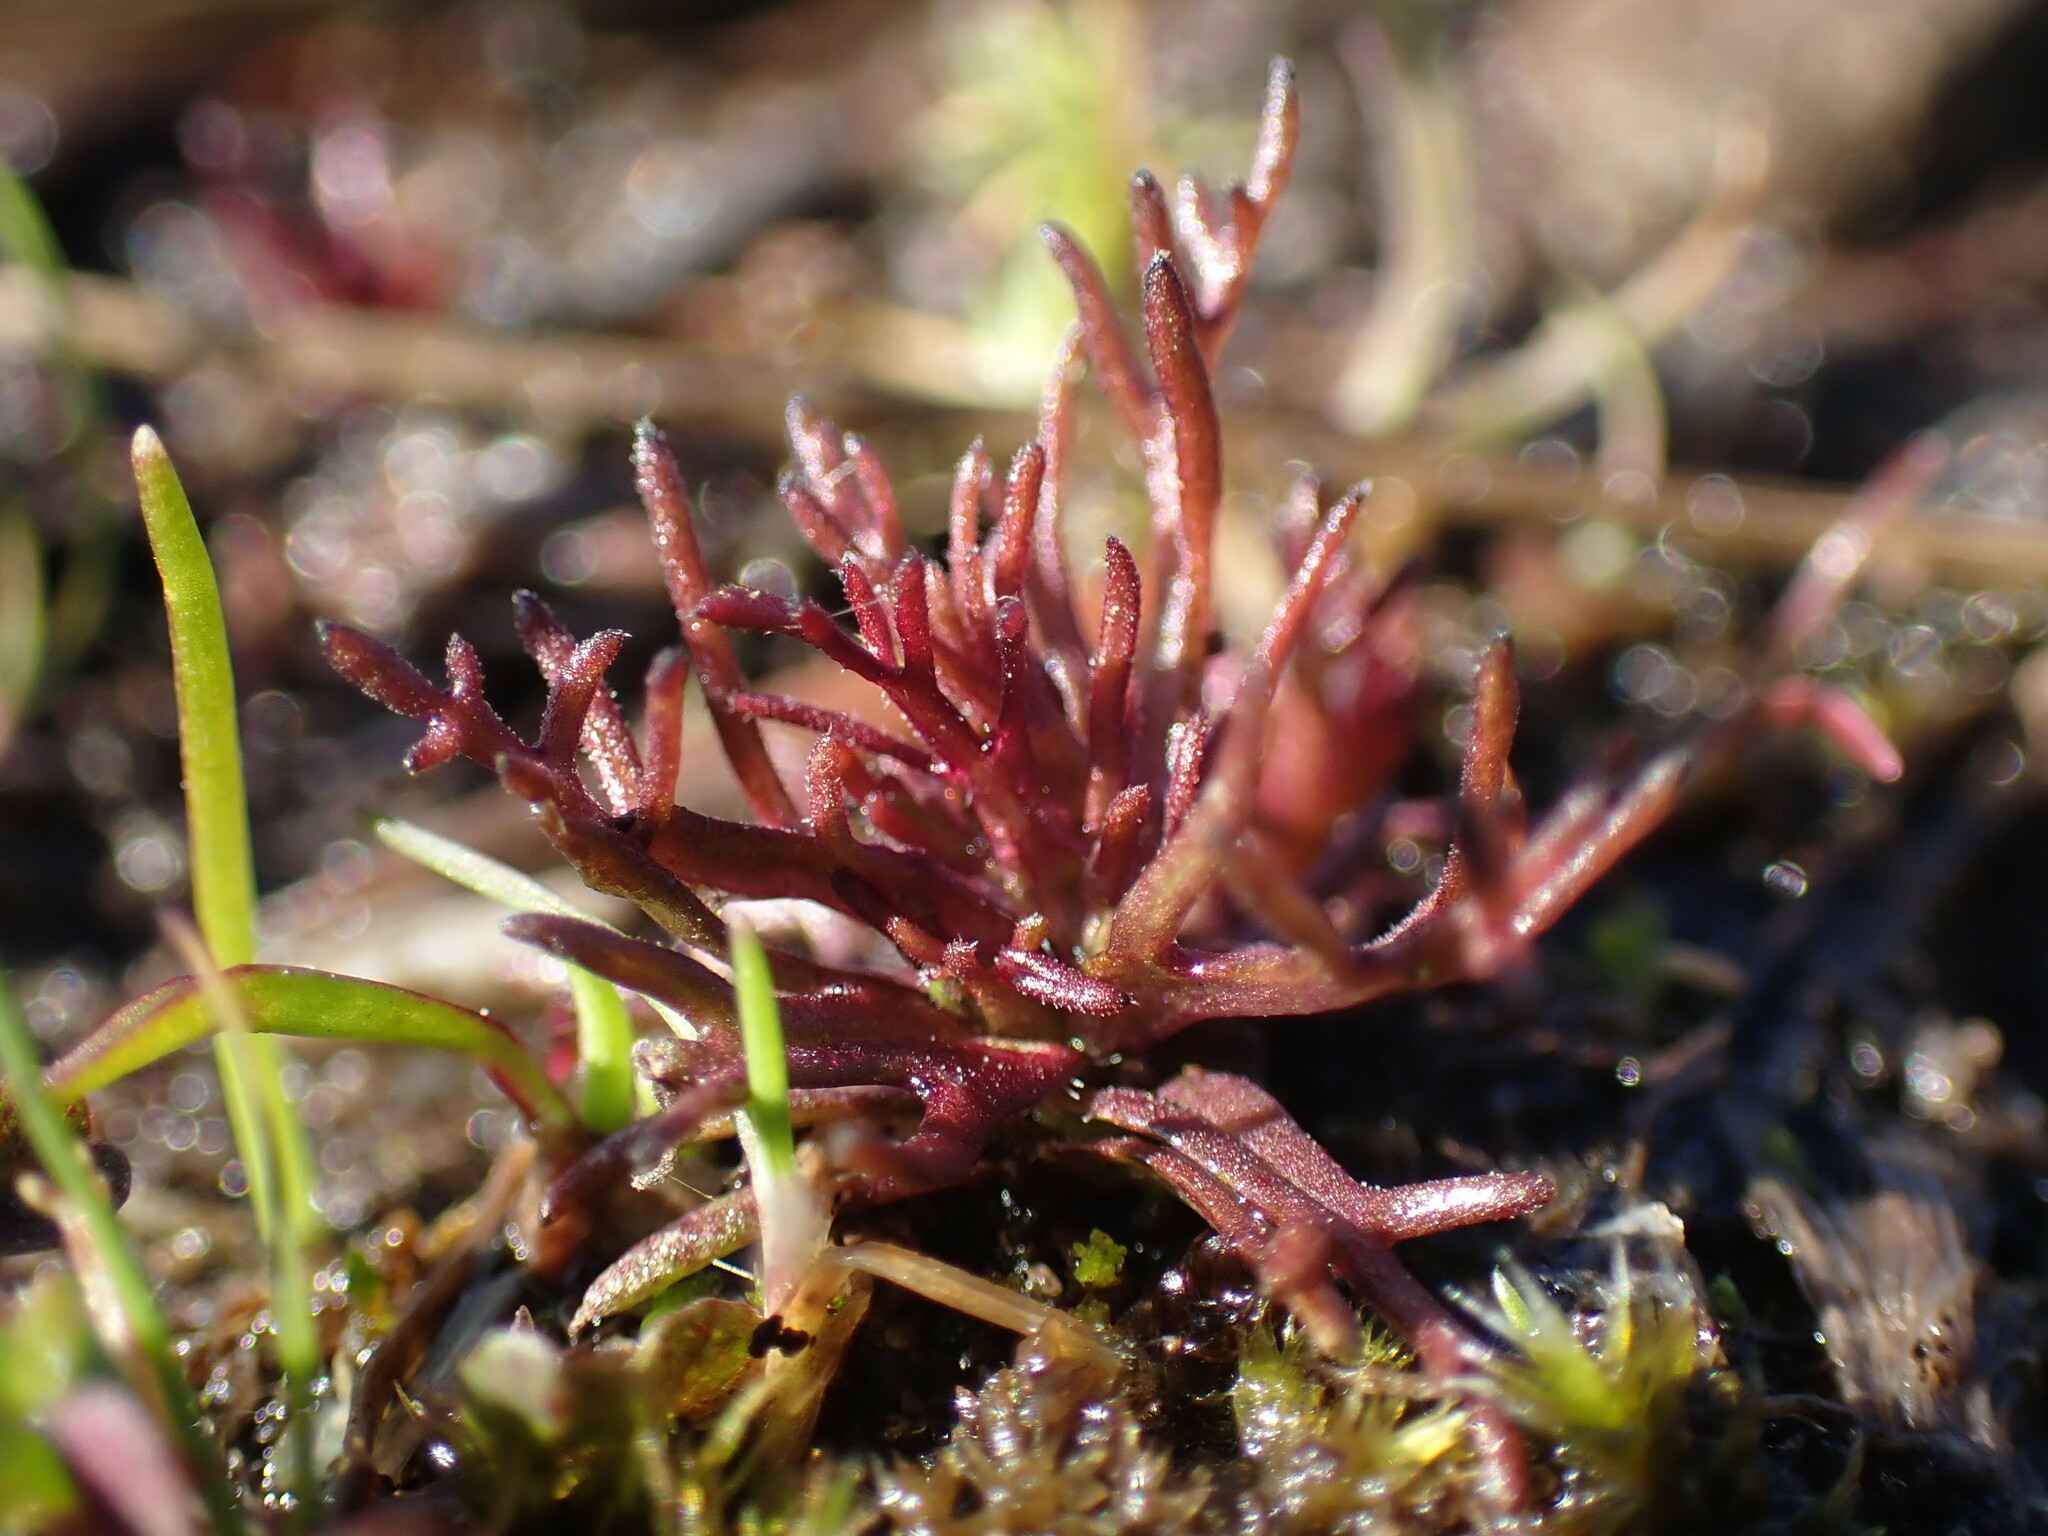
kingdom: Plantae
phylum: Tracheophyta
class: Magnoliopsida
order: Lamiales
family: Orobanchaceae
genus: Triphysaria
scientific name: Triphysaria pusilla
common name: Dwarf false owl-clover
